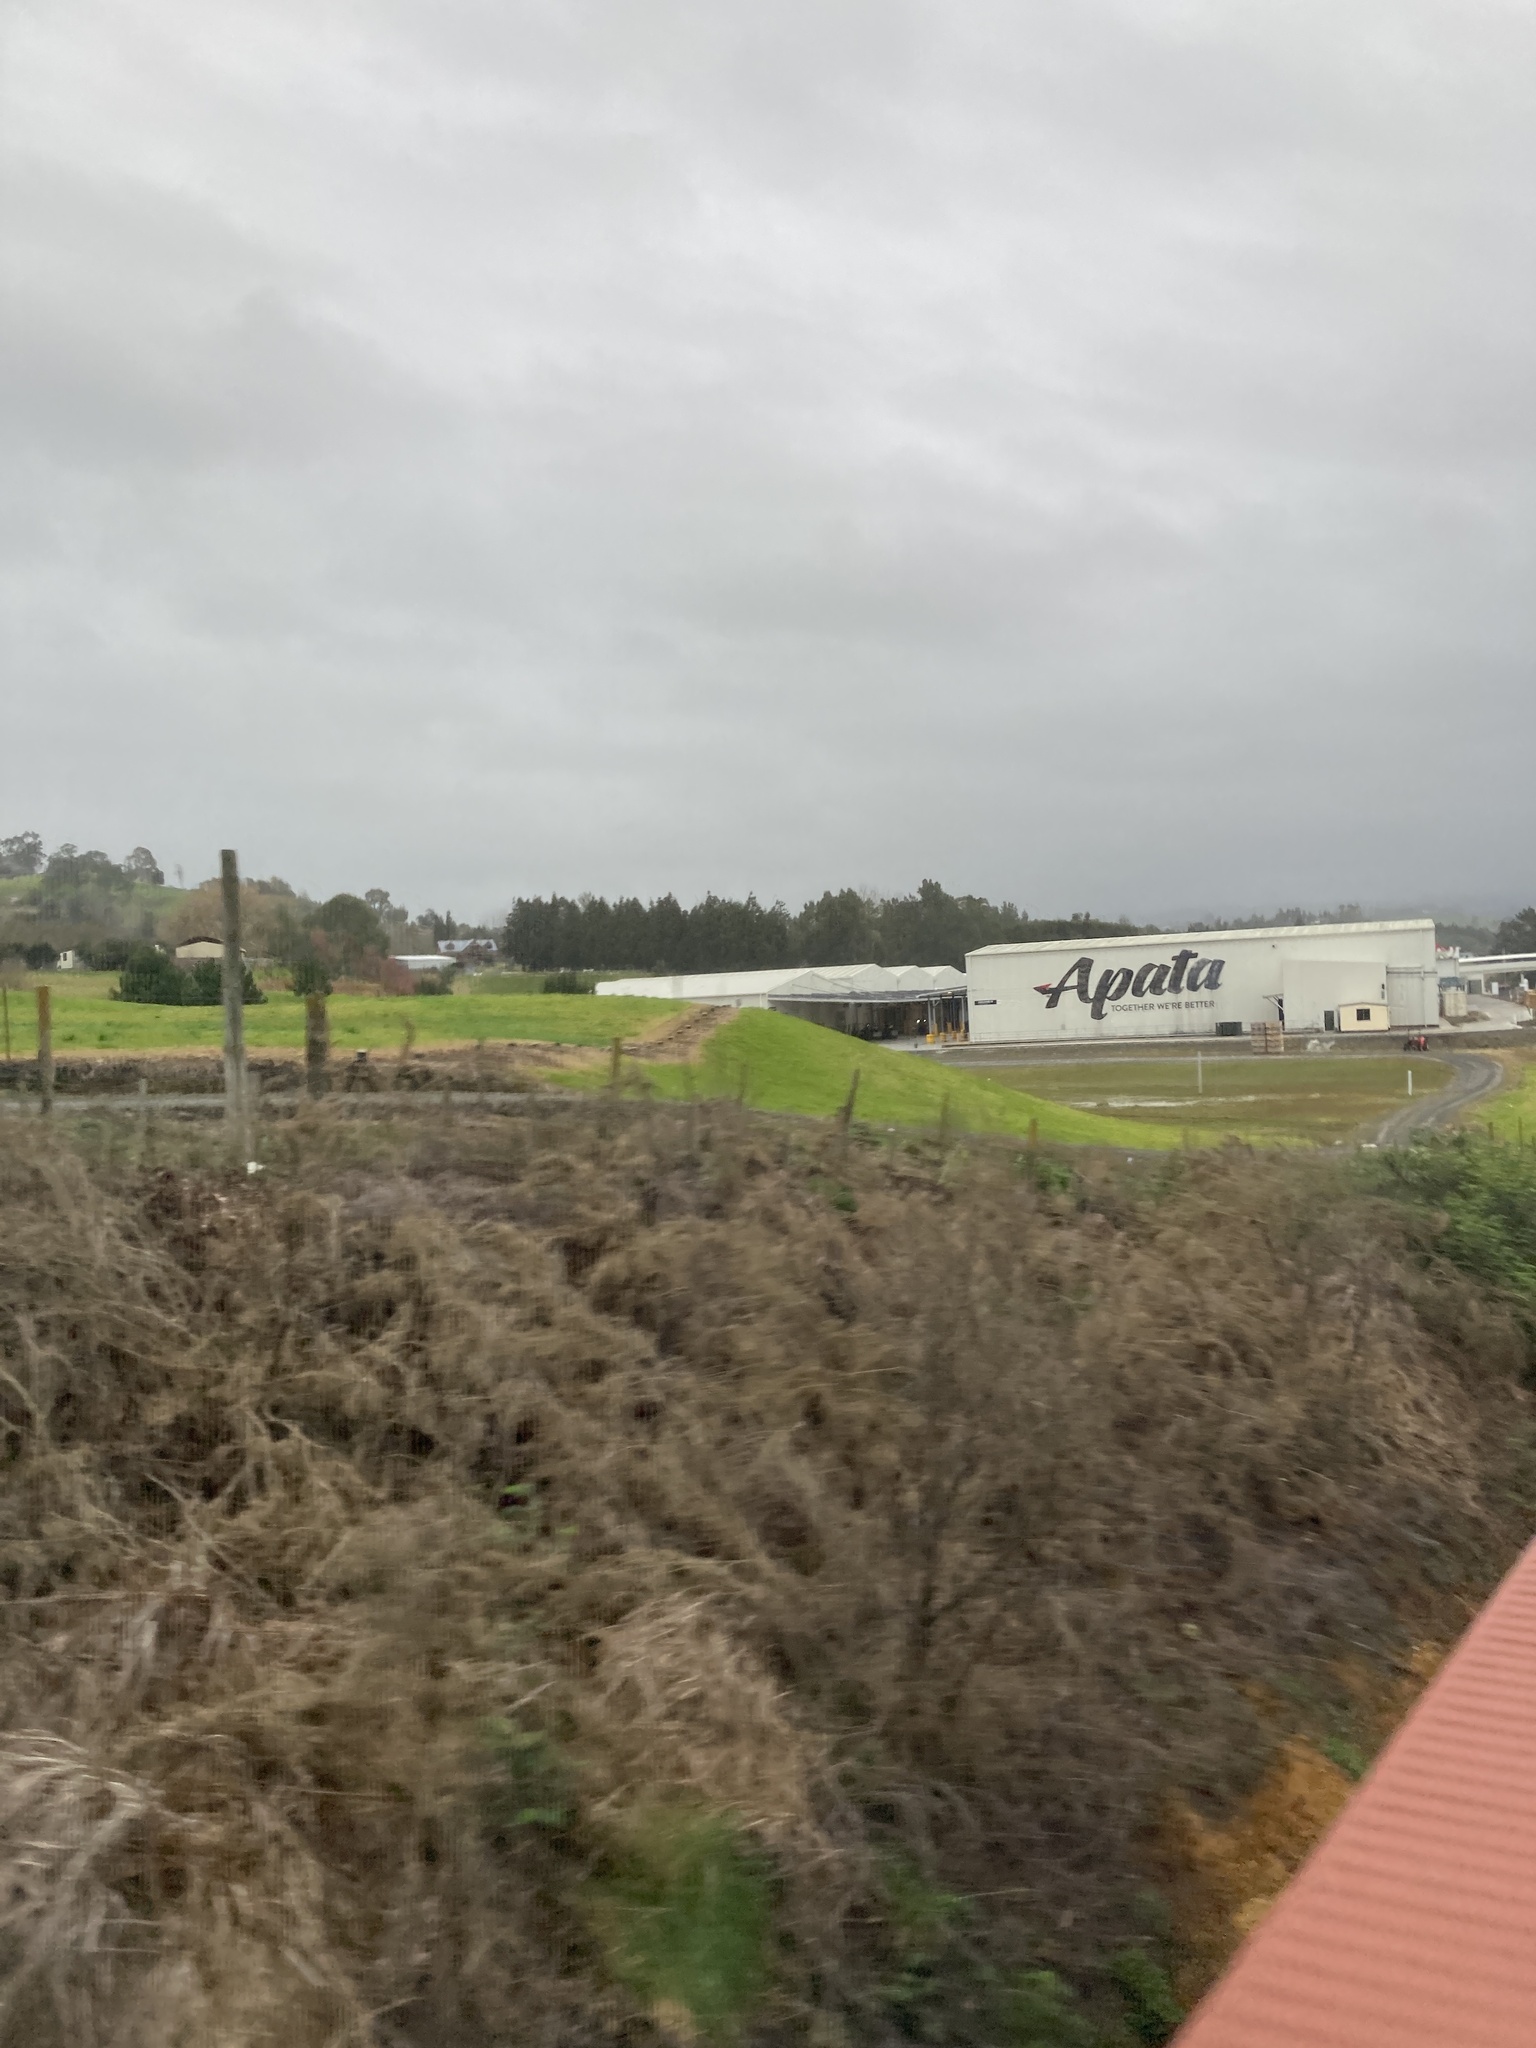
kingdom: Plantae
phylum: Tracheophyta
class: Magnoliopsida
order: Fabales
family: Fabaceae
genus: Ulex
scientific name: Ulex europaeus
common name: Common gorse
